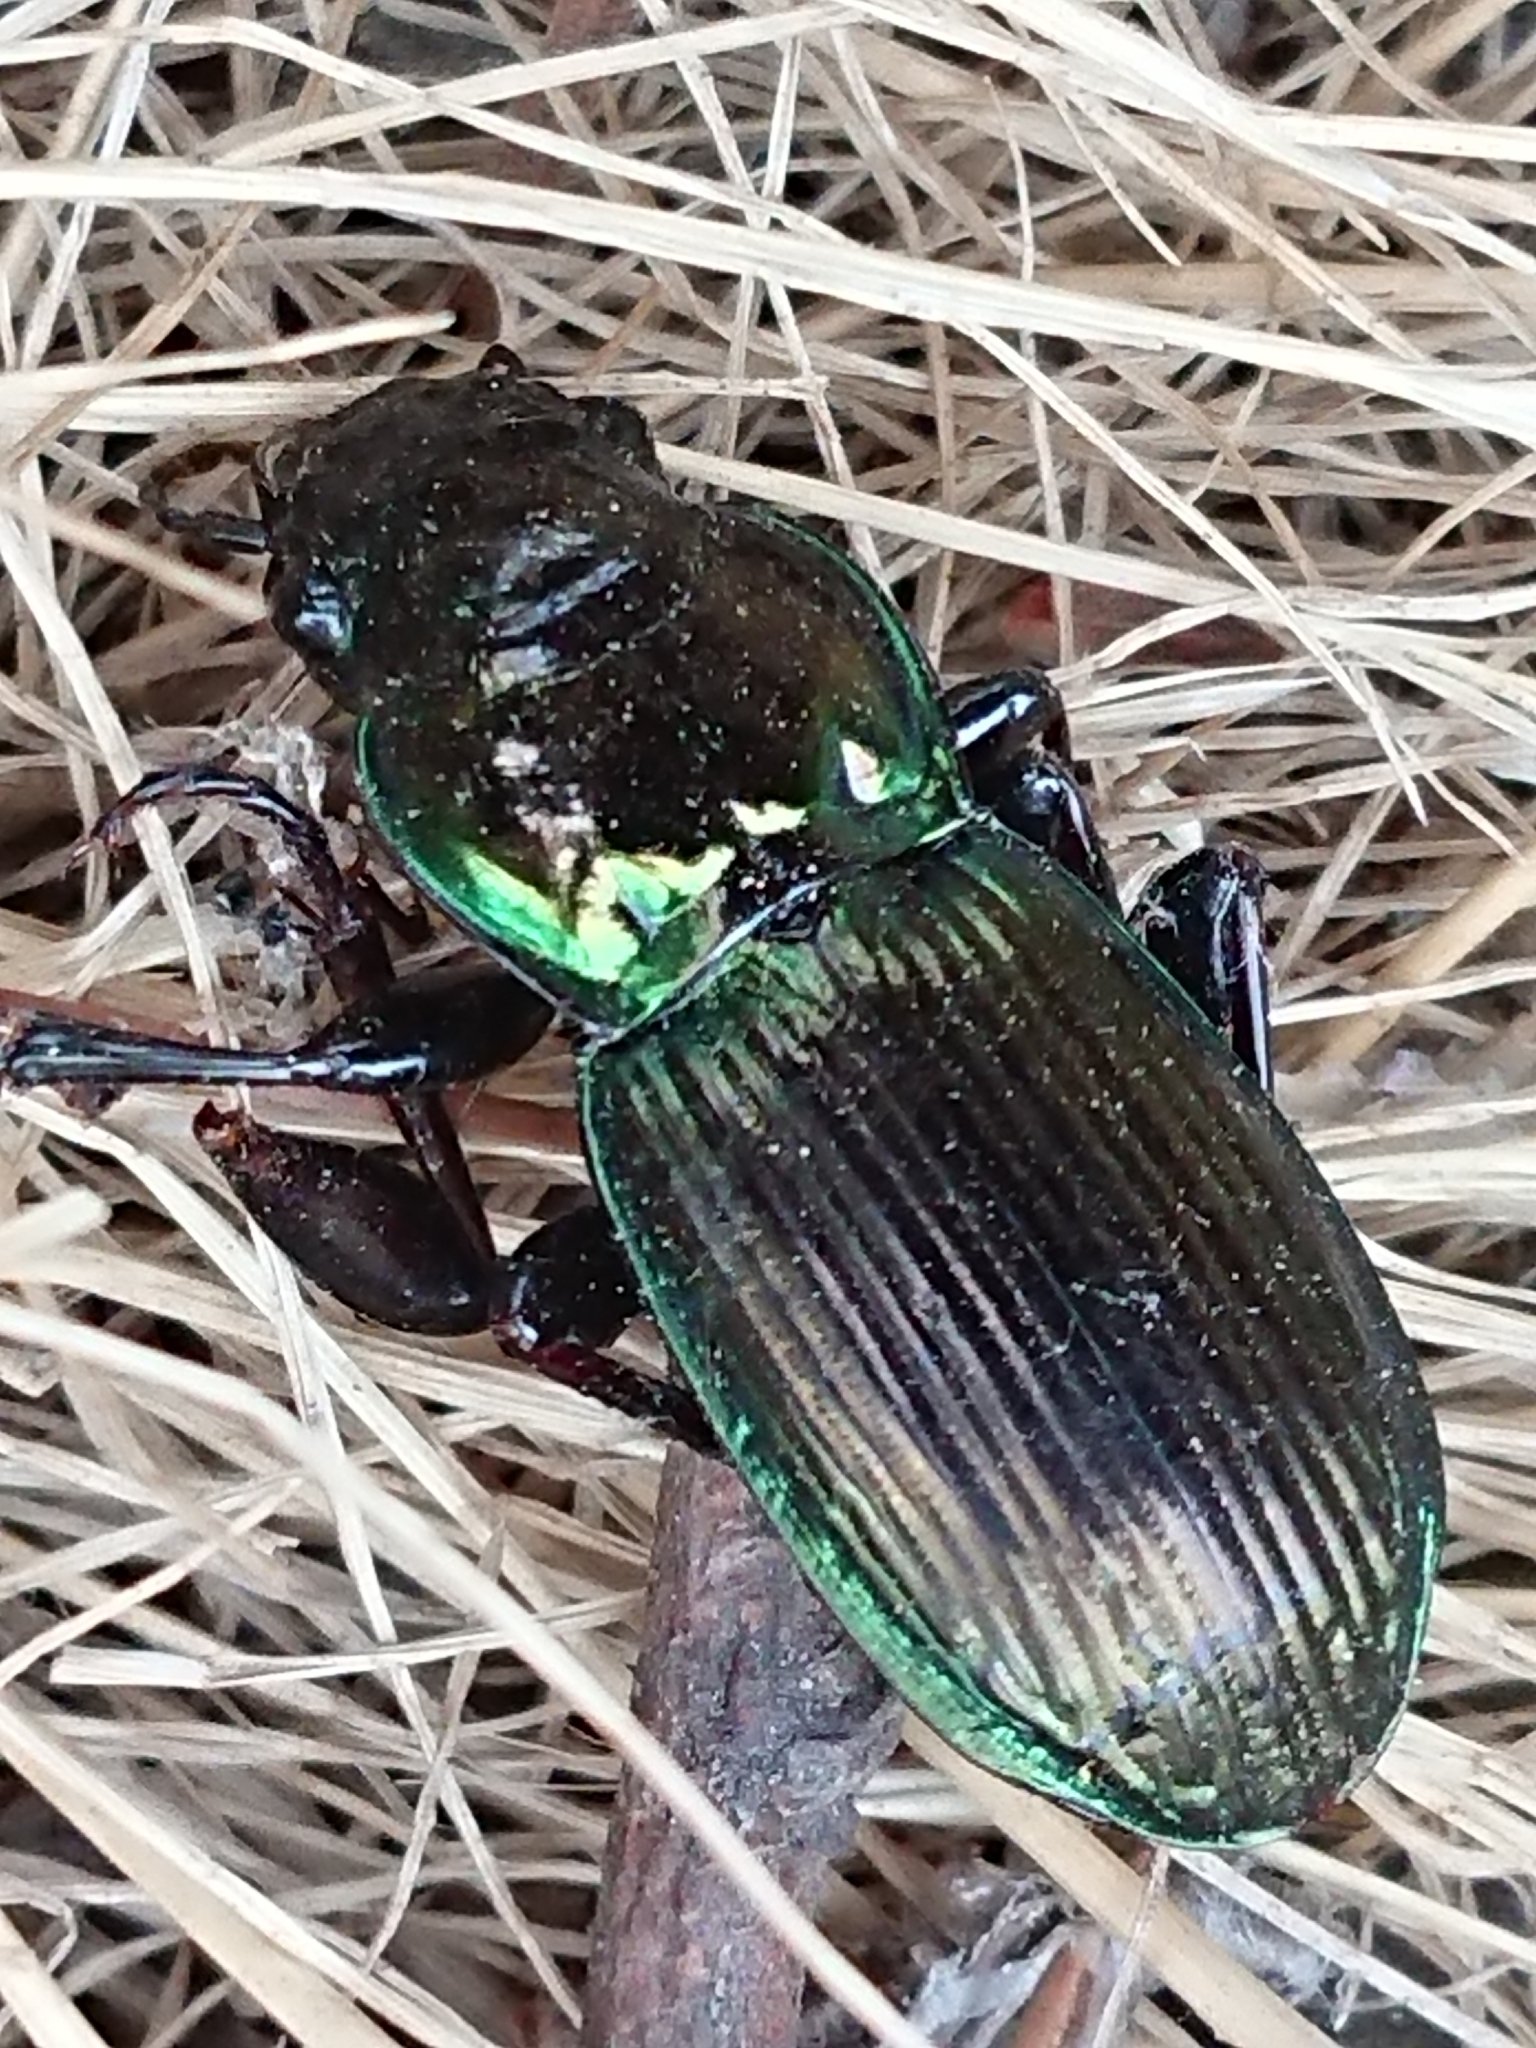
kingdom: Animalia
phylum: Arthropoda
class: Insecta
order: Coleoptera
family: Carabidae
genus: Megadromus
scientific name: Megadromus antarcticus
